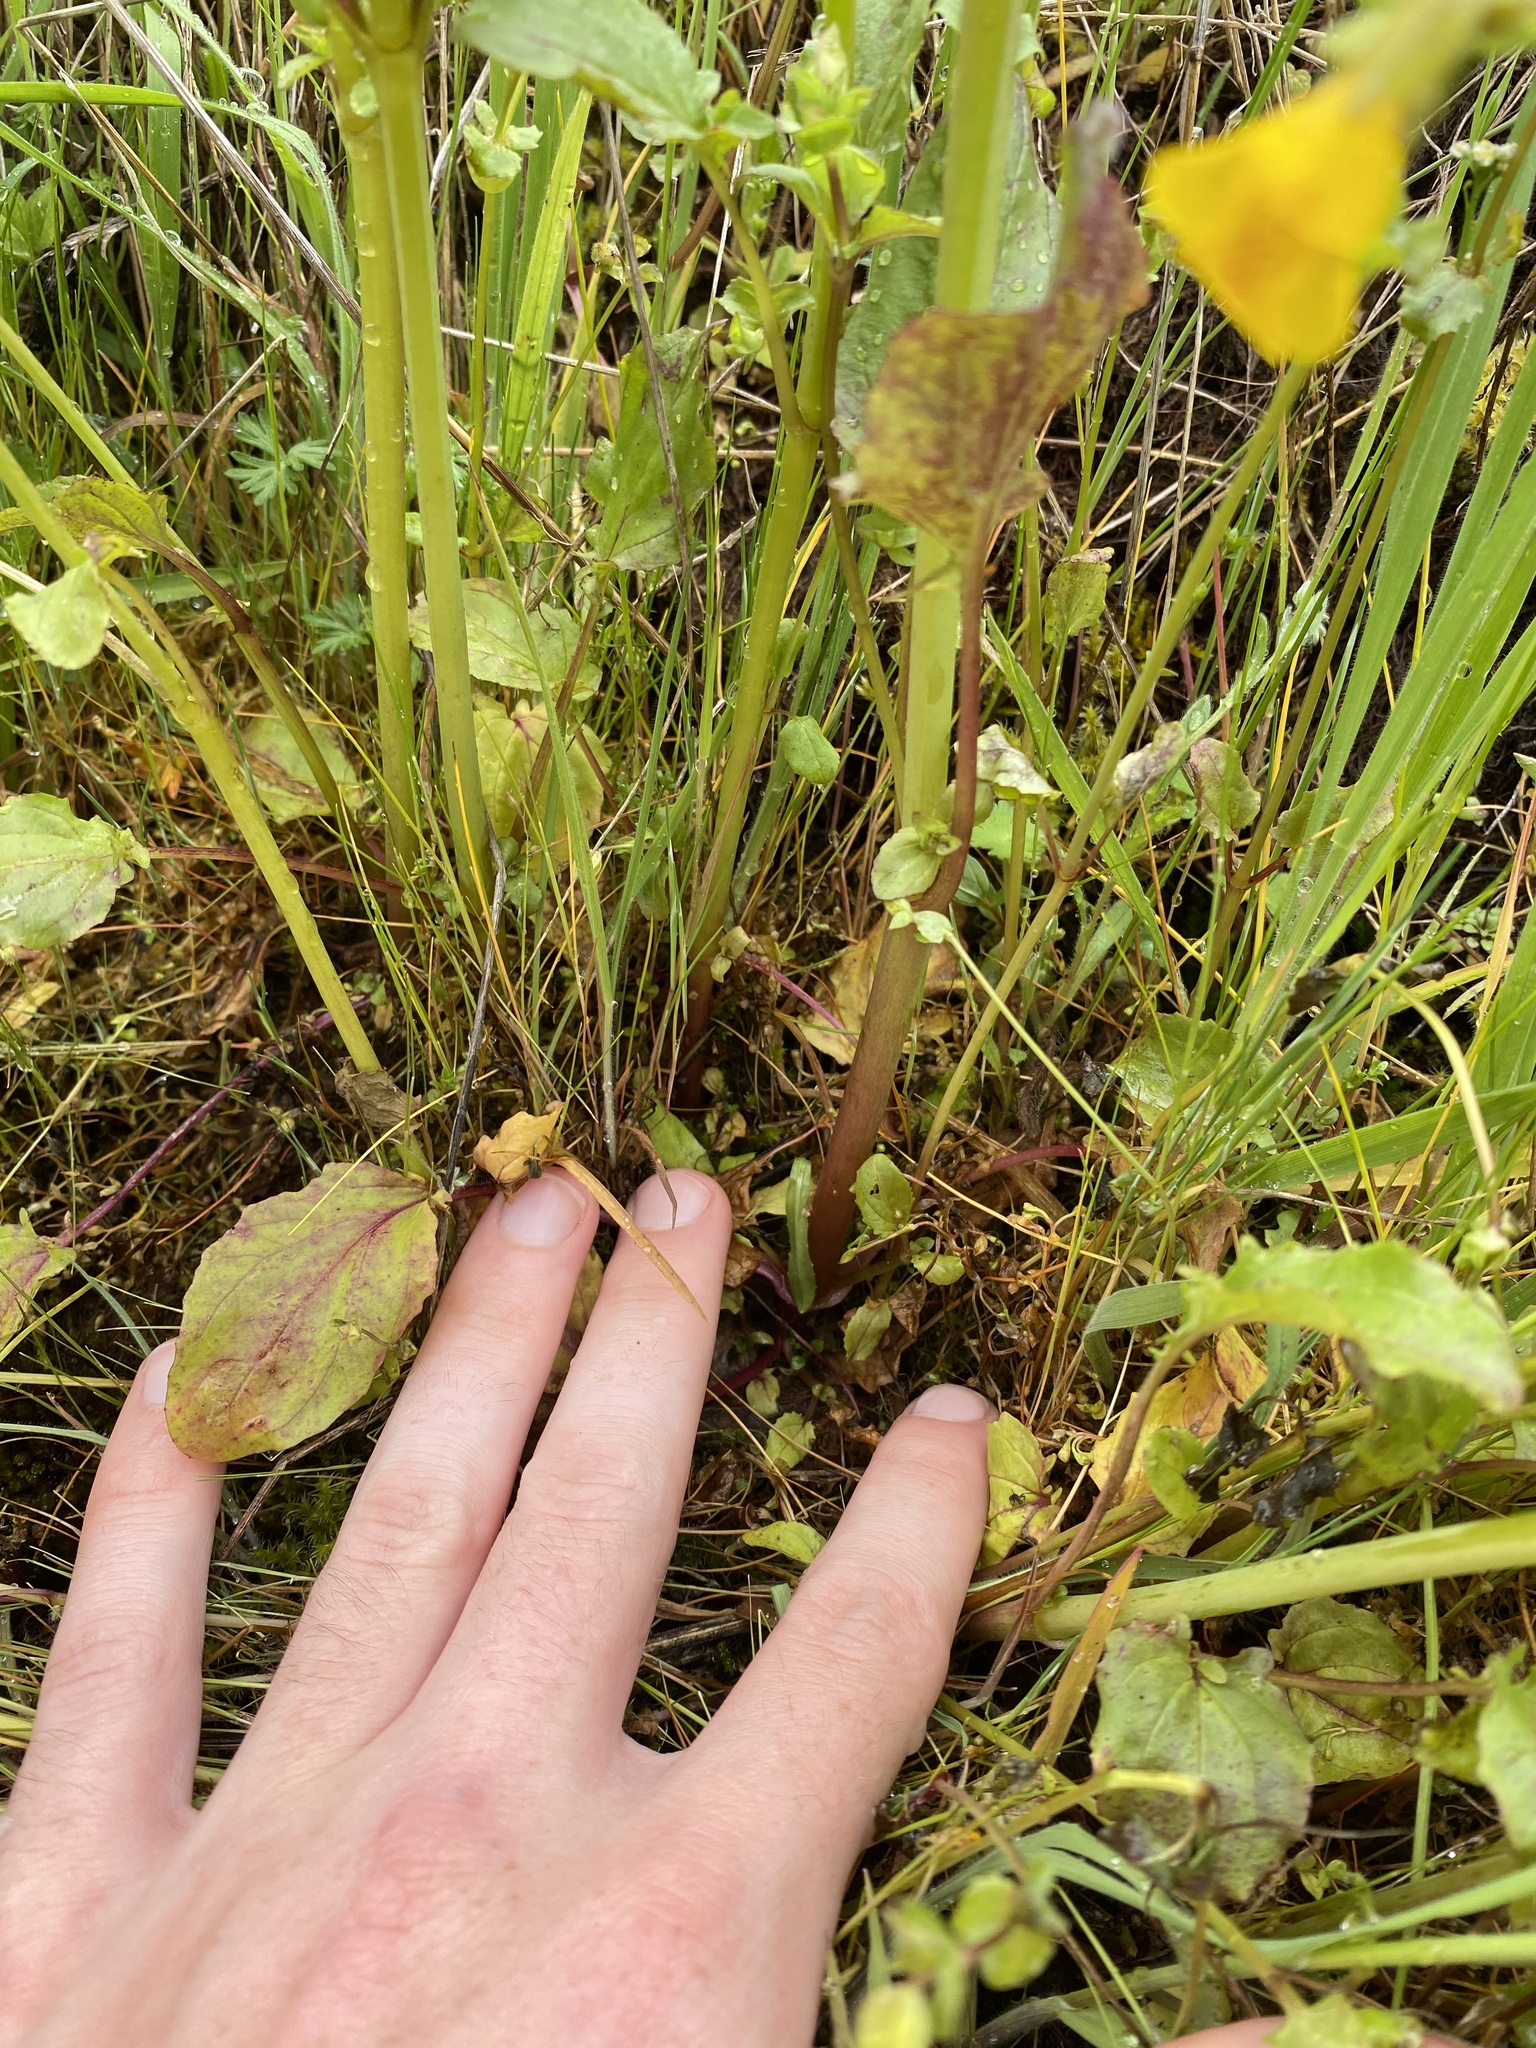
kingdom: Plantae
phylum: Tracheophyta
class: Magnoliopsida
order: Lamiales
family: Phrymaceae
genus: Erythranthe
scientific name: Erythranthe guttata
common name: Monkeyflower
